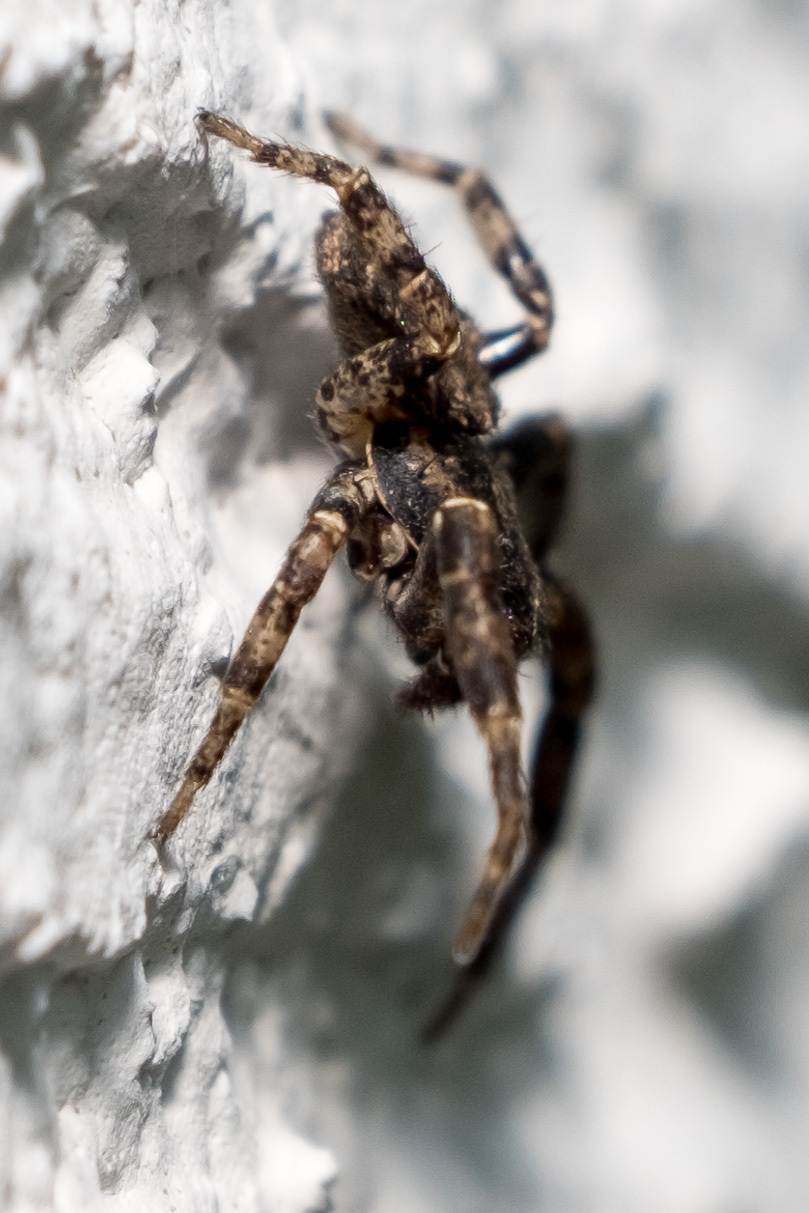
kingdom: Animalia
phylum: Arthropoda
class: Arachnida
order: Araneae
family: Thomisidae
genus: Bassaniana
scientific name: Bassaniana
